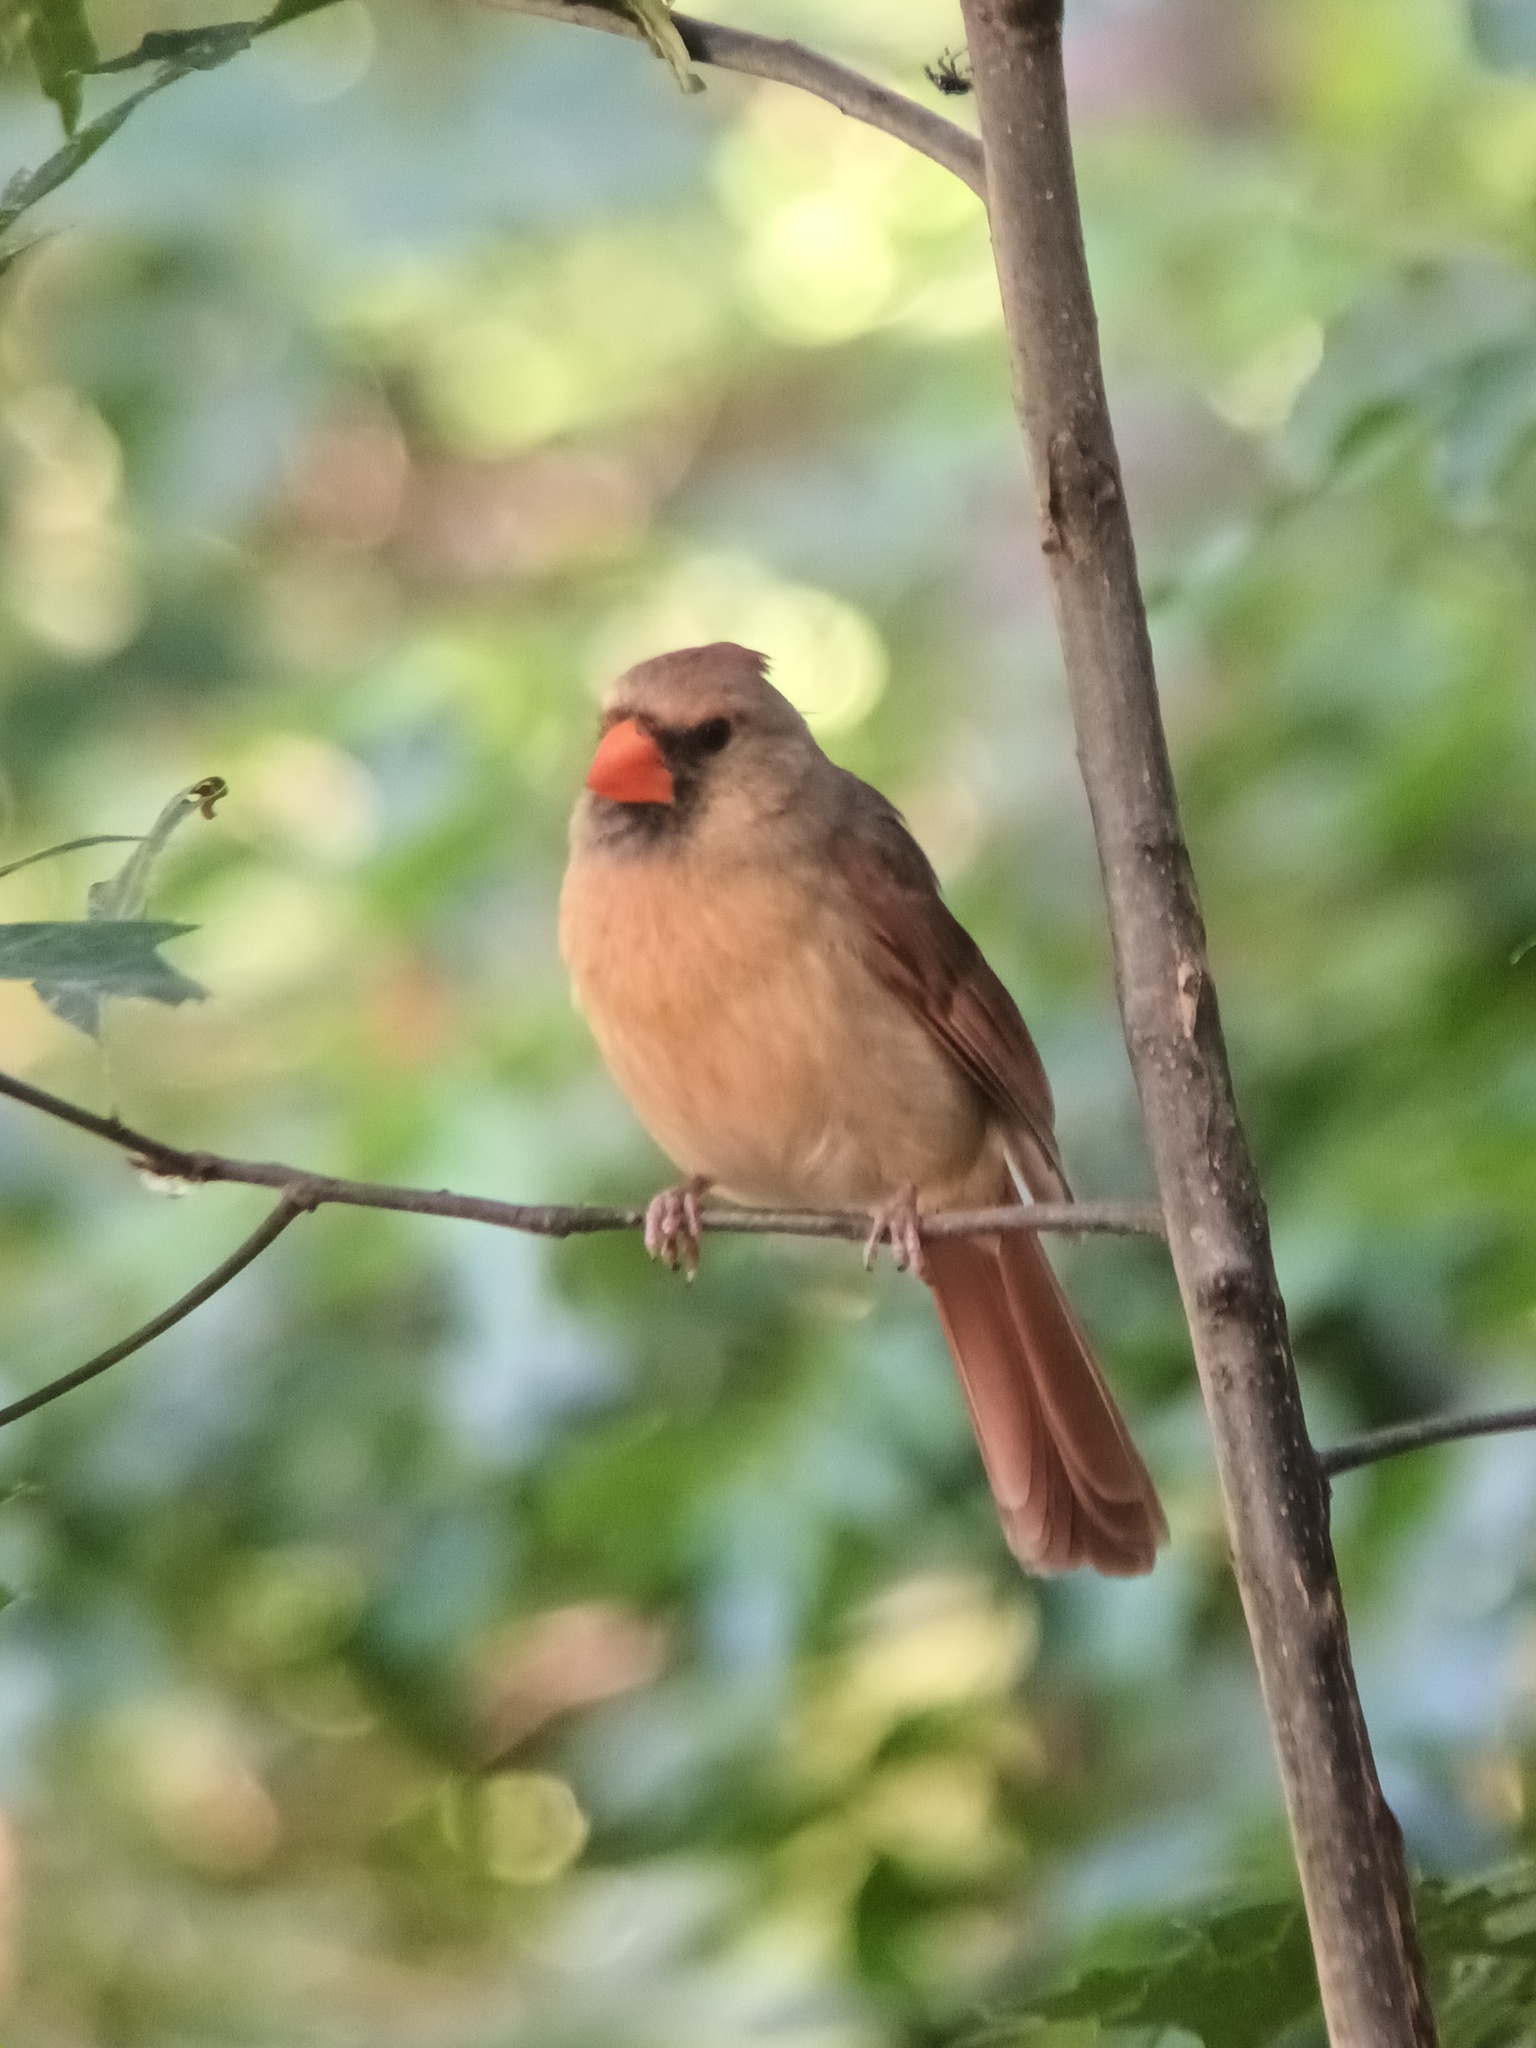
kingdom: Animalia
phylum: Chordata
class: Aves
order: Passeriformes
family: Cardinalidae
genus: Cardinalis
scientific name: Cardinalis cardinalis
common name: Northern cardinal
